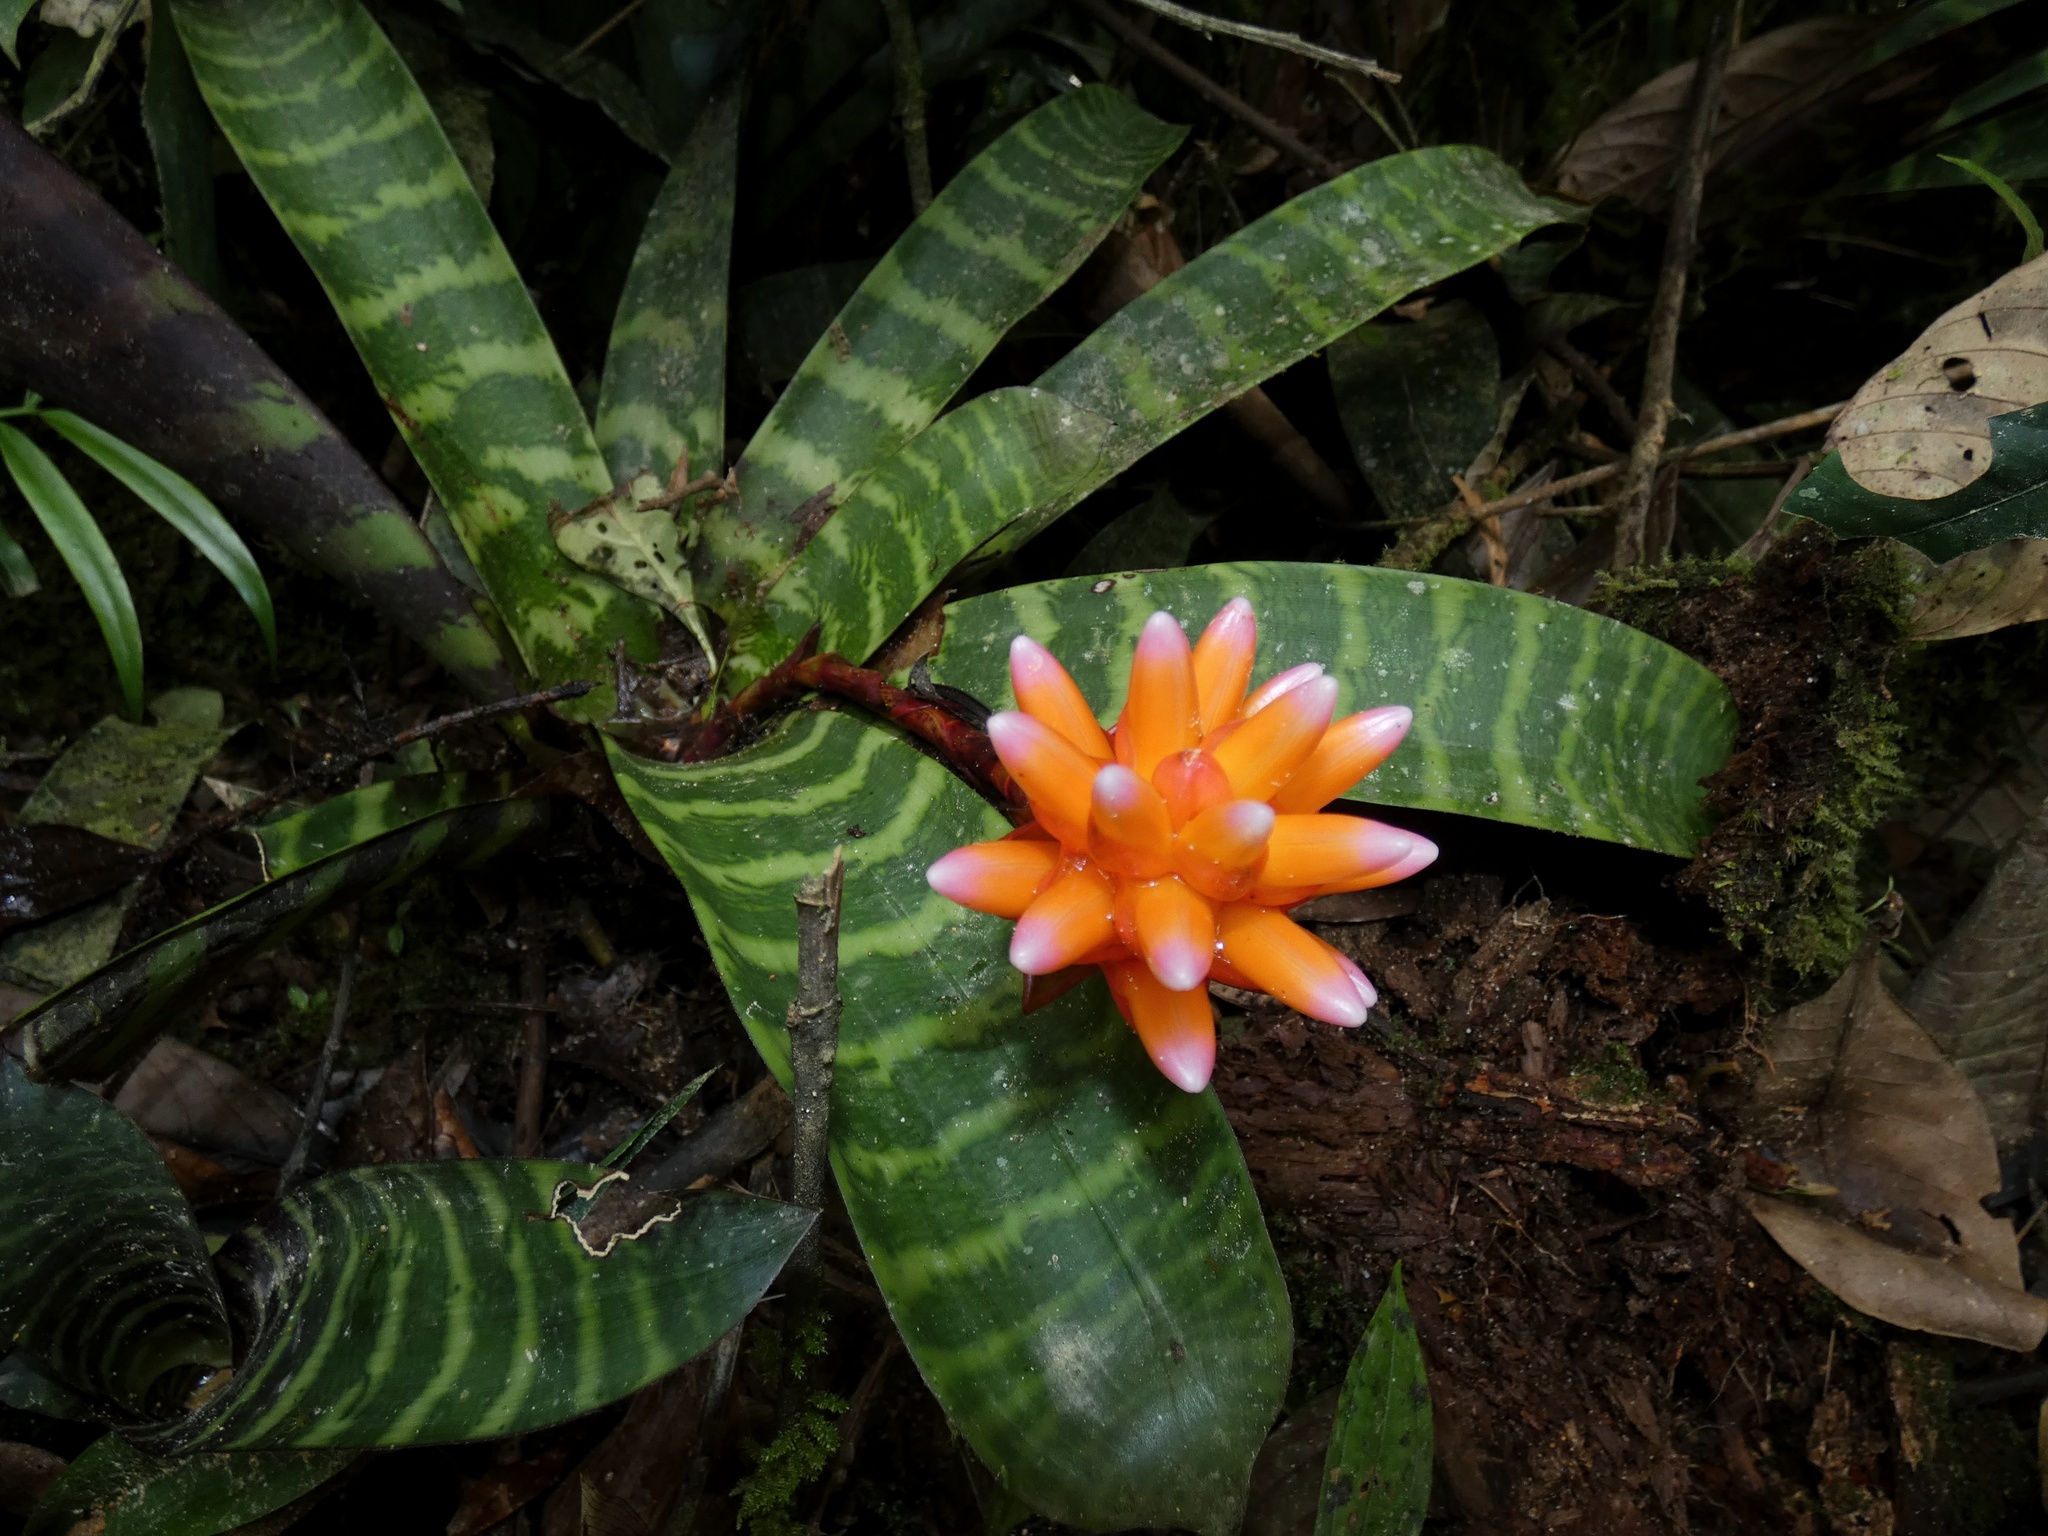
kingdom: Plantae
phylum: Tracheophyta
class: Liliopsida
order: Poales
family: Bromeliaceae
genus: Guzmania
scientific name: Guzmania musaica
